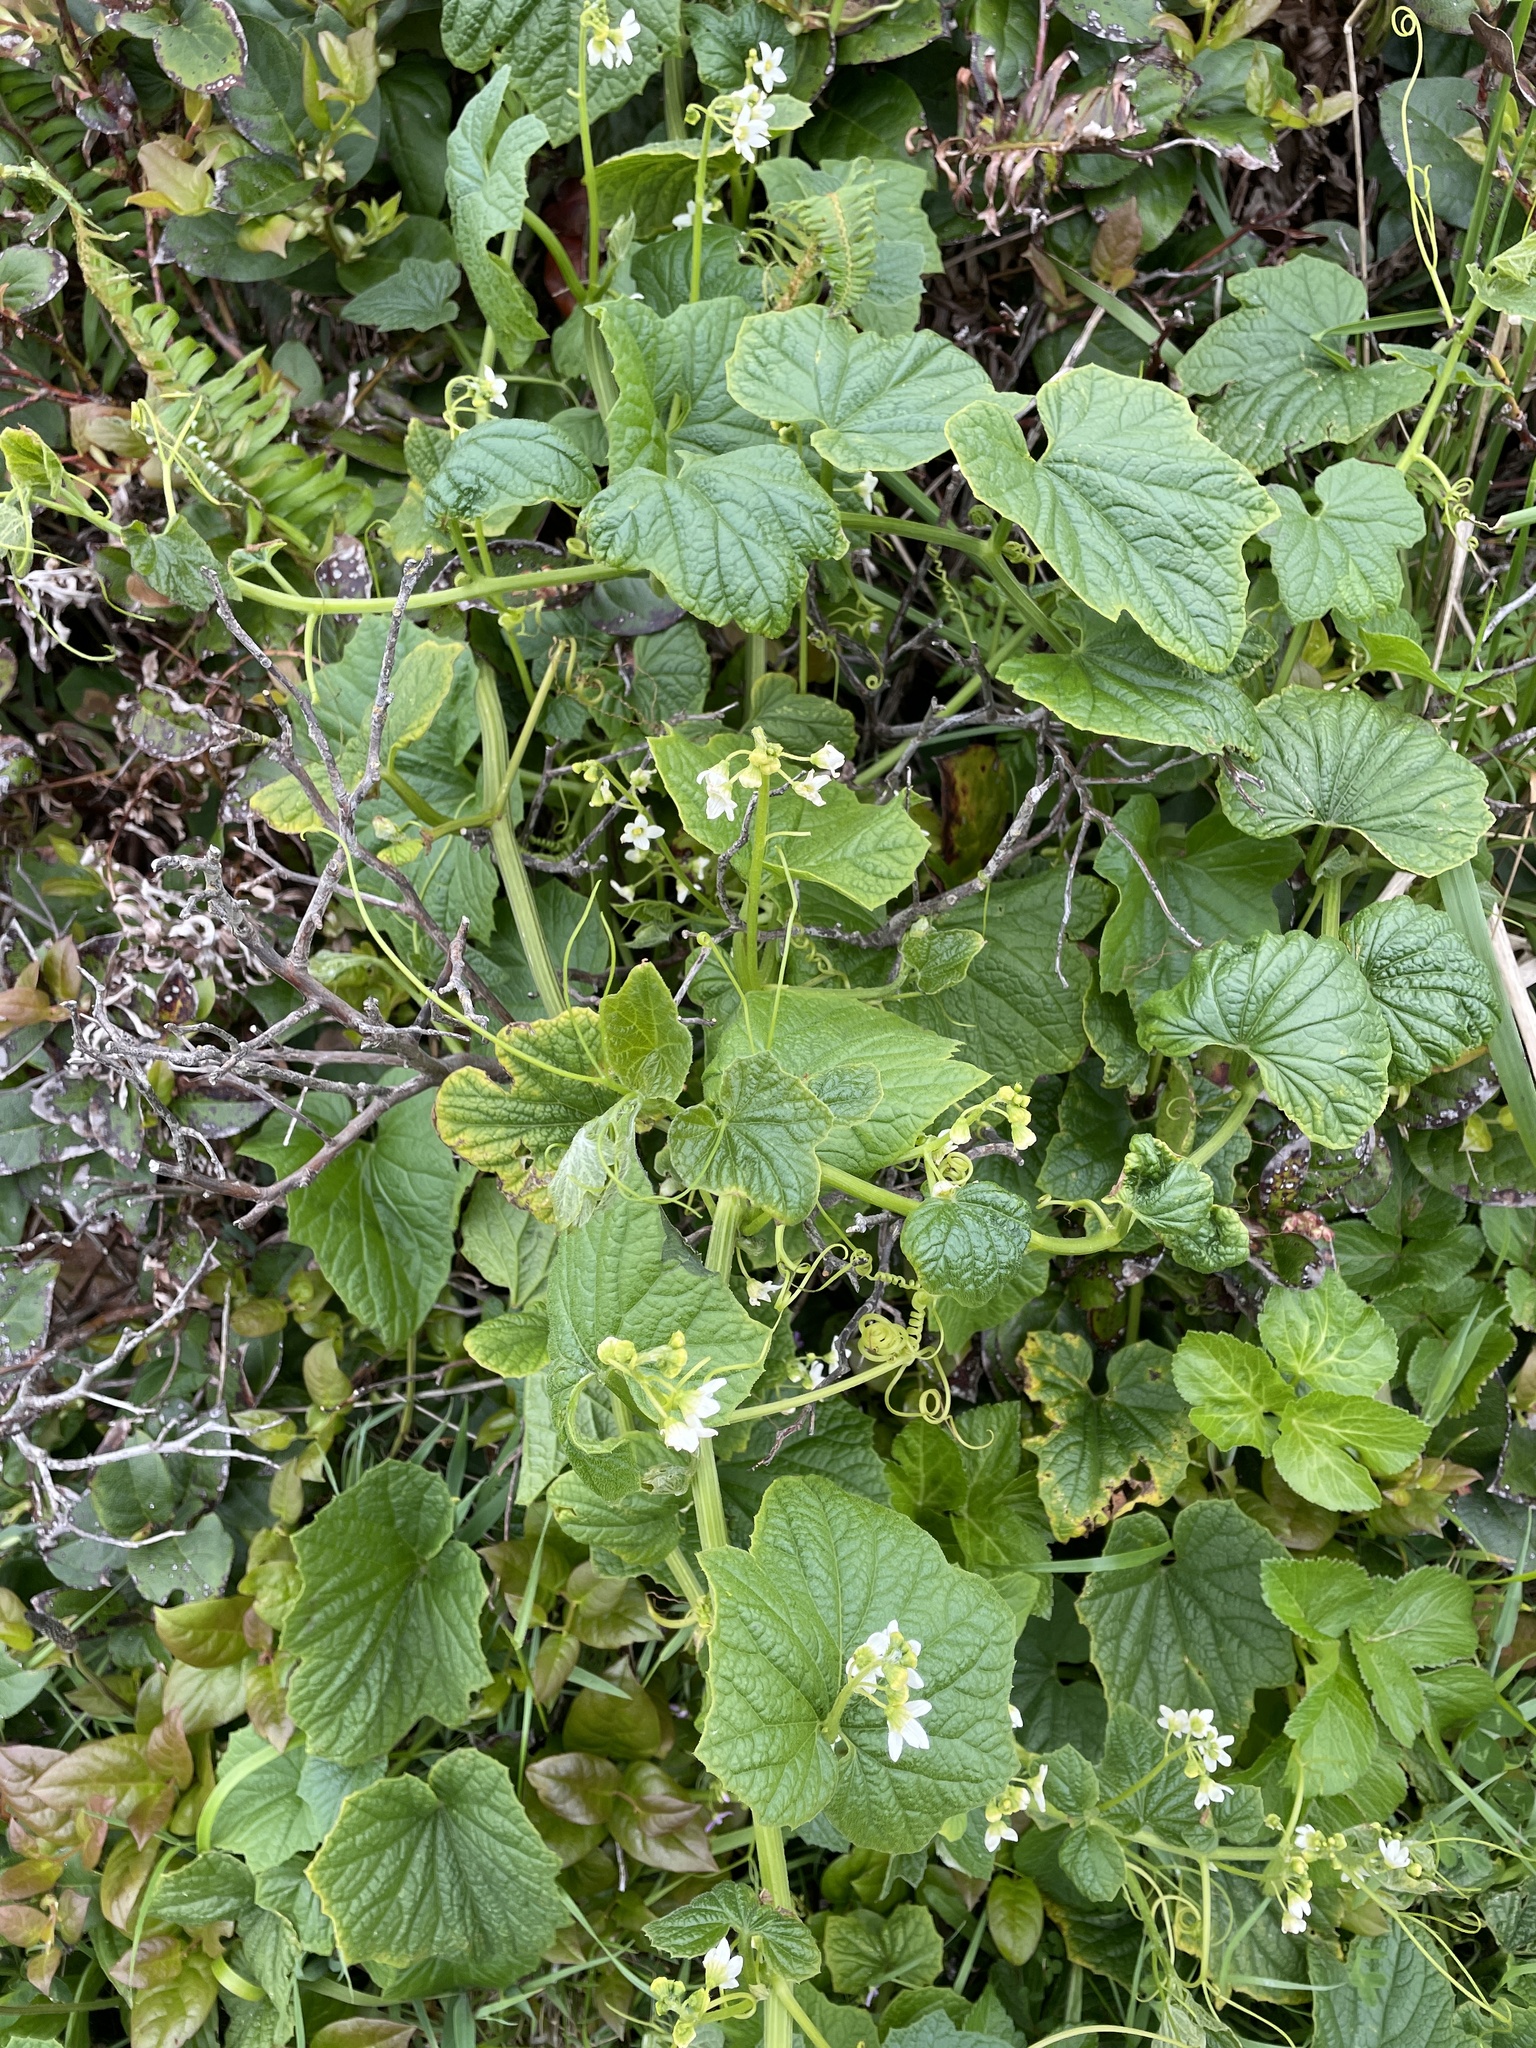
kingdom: Plantae
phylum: Tracheophyta
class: Magnoliopsida
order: Cucurbitales
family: Cucurbitaceae
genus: Marah
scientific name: Marah oregana
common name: Coastal manroot
